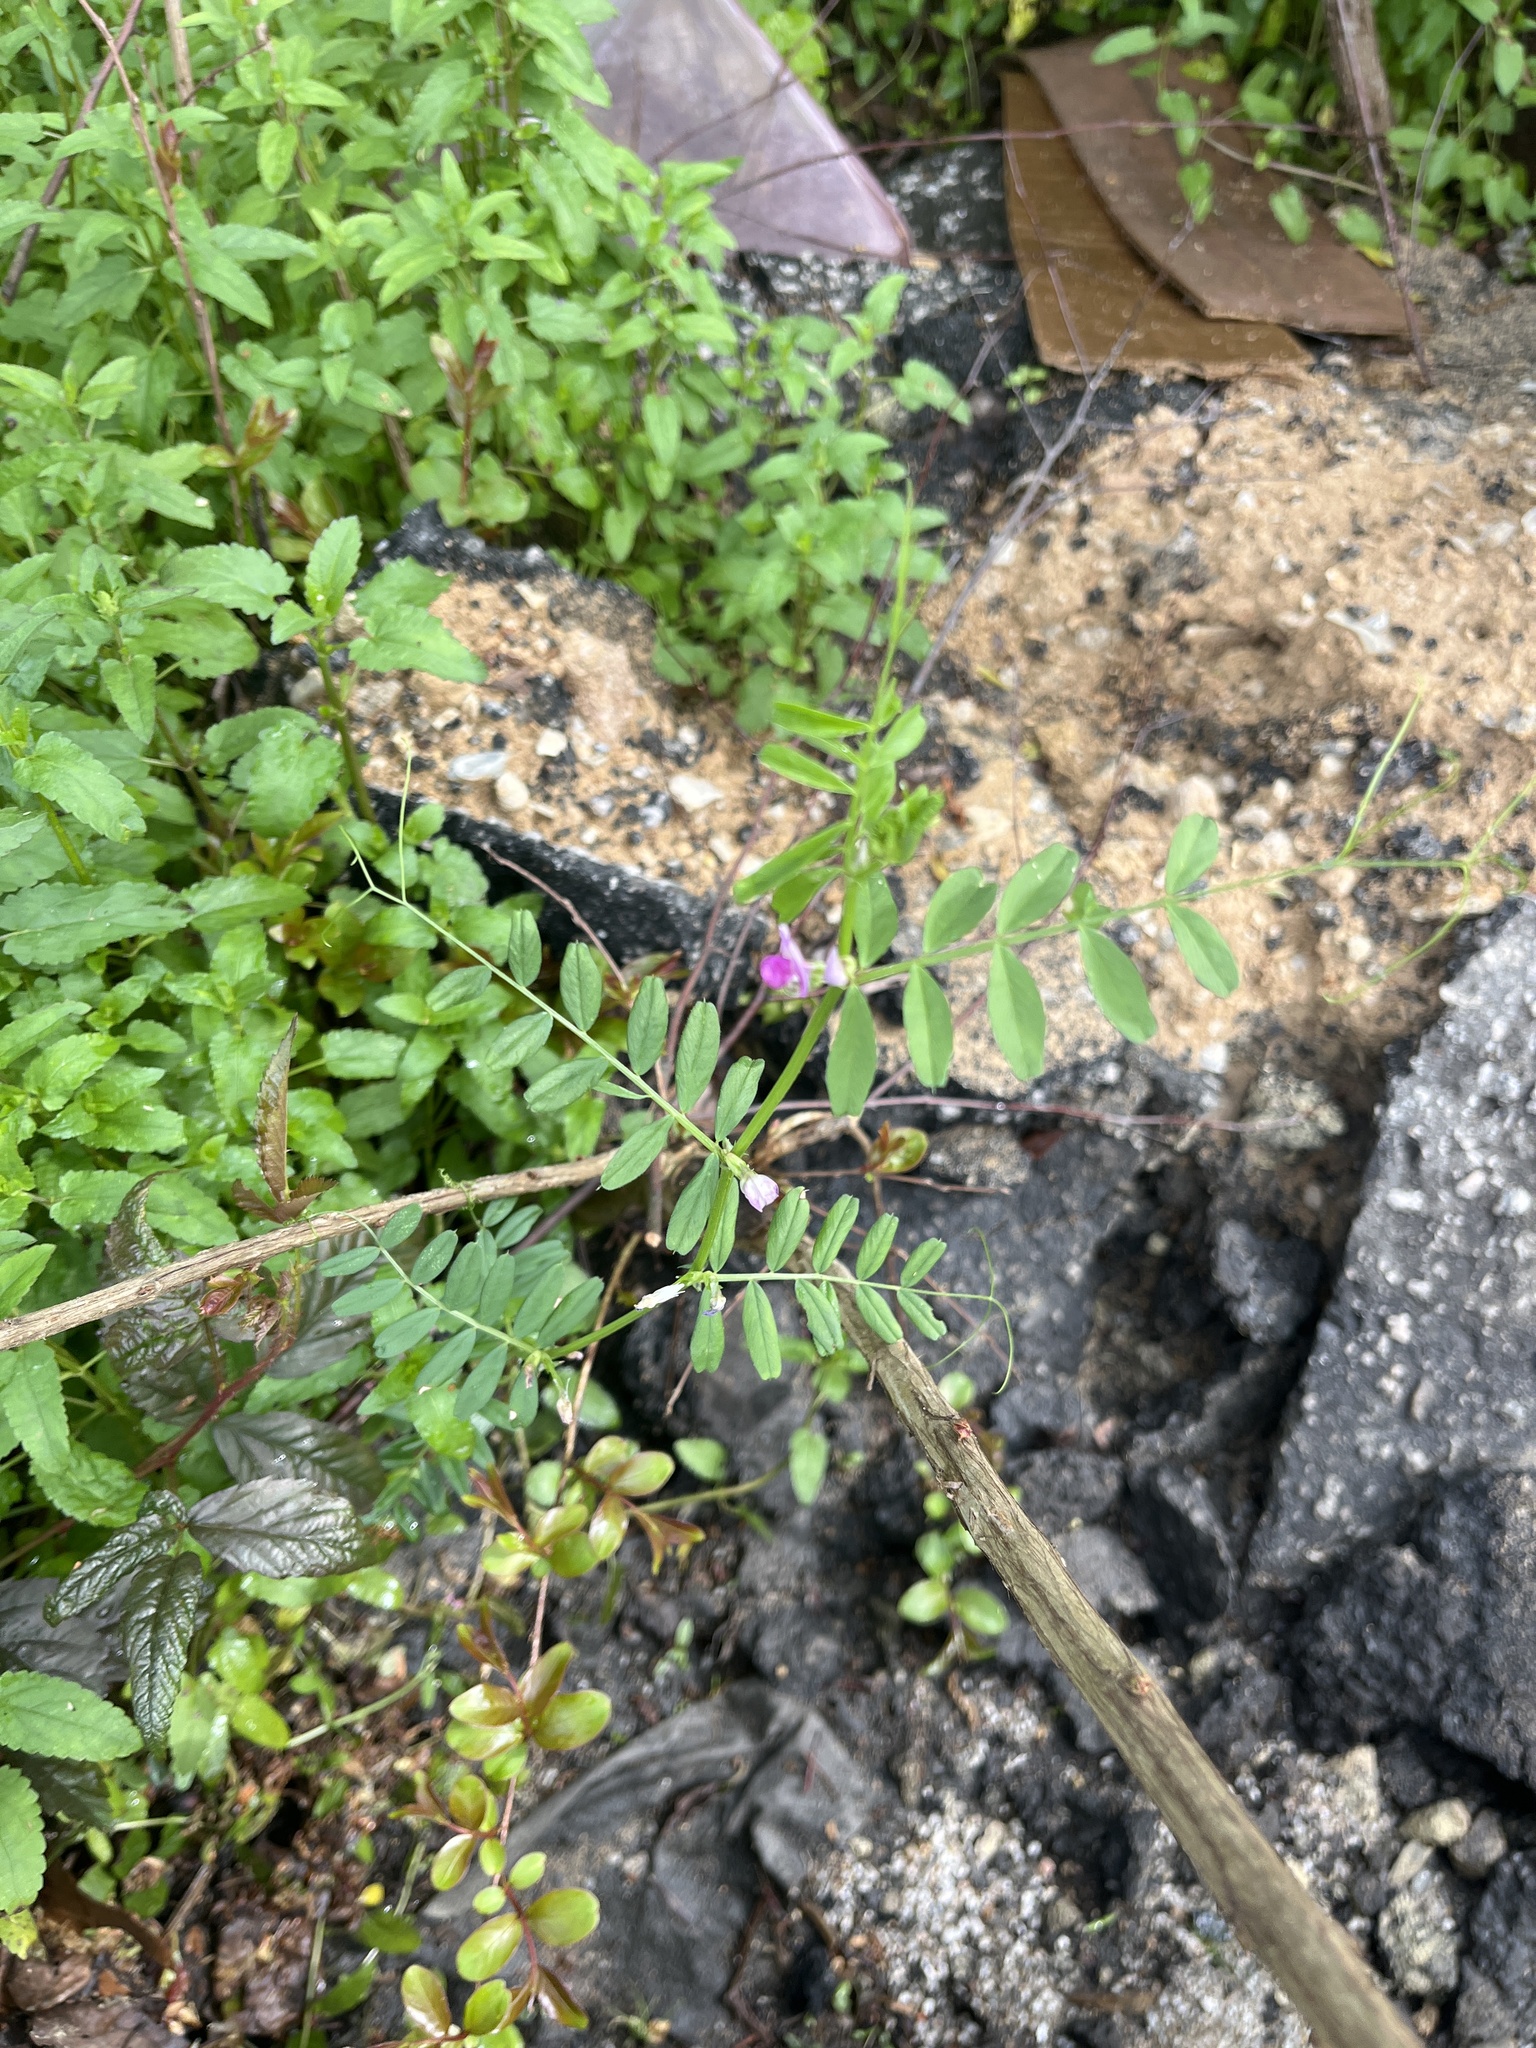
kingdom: Plantae
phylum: Tracheophyta
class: Magnoliopsida
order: Fabales
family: Fabaceae
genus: Vicia
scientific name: Vicia sativa
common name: Garden vetch
